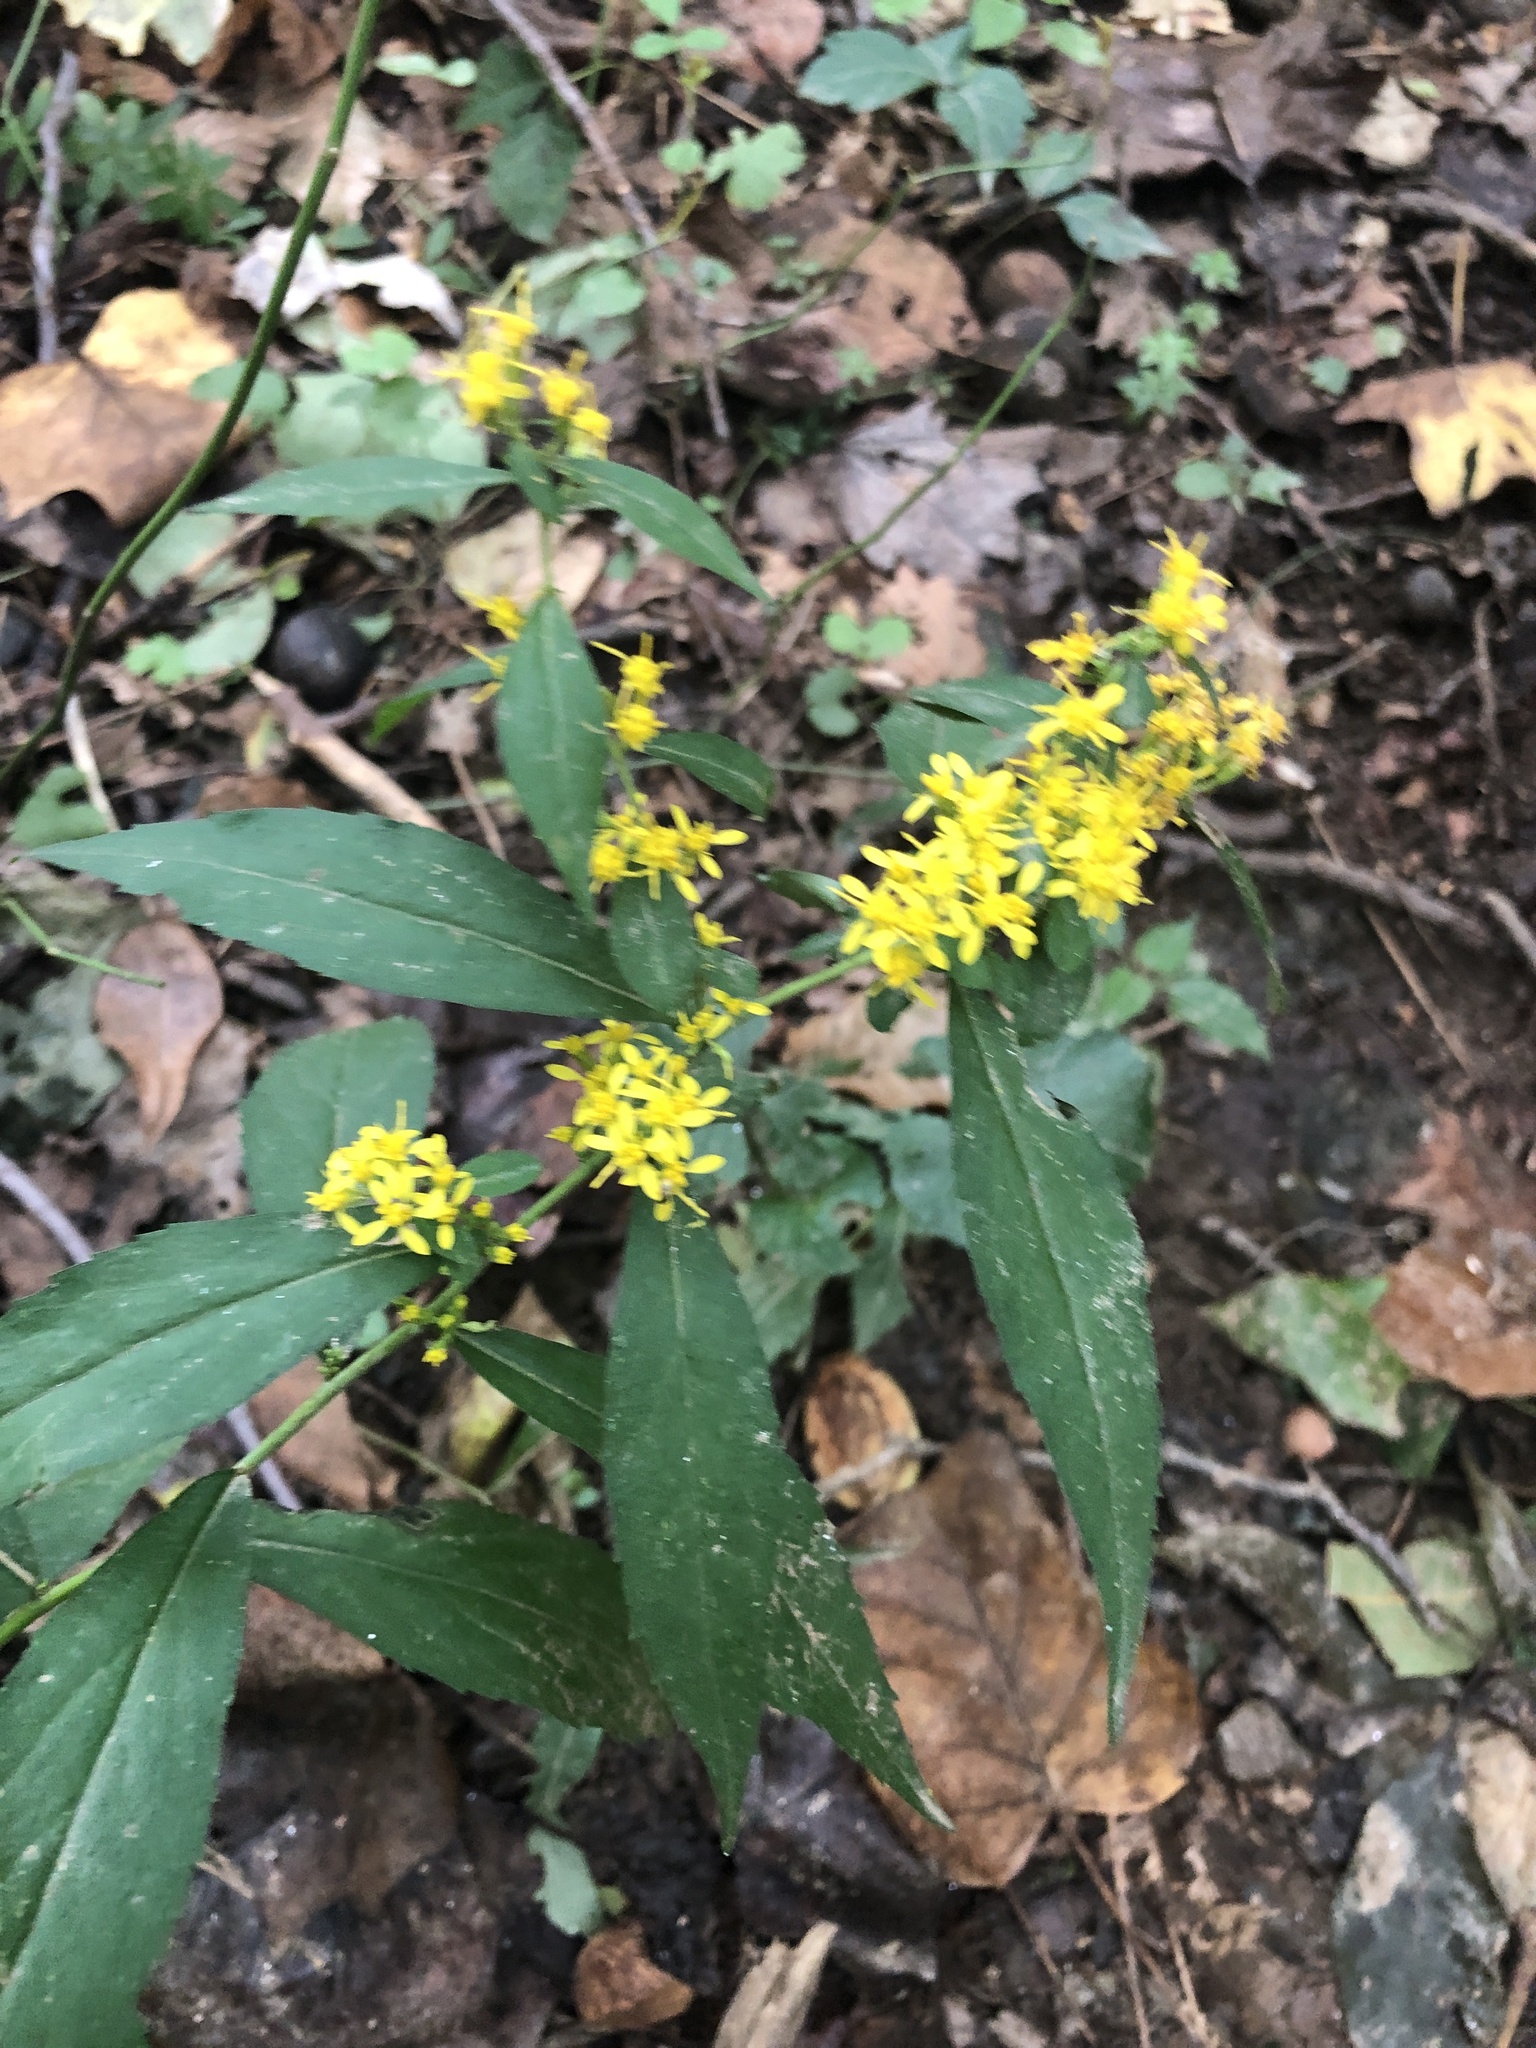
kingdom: Plantae
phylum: Tracheophyta
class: Magnoliopsida
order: Asterales
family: Asteraceae
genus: Solidago
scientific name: Solidago caesia
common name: Woodland goldenrod
